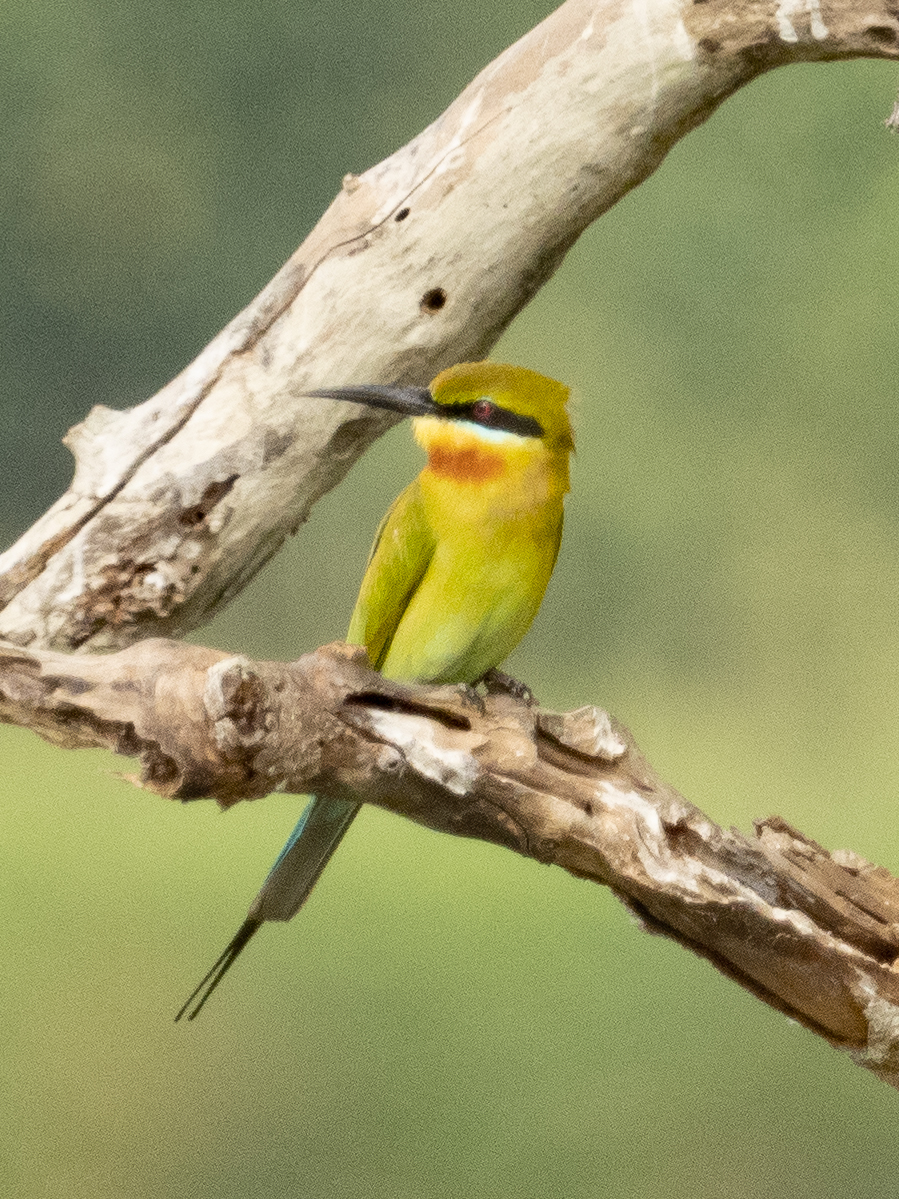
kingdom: Animalia
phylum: Chordata
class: Aves
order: Coraciiformes
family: Meropidae
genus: Merops
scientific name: Merops philippinus
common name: Blue-tailed bee-eater
